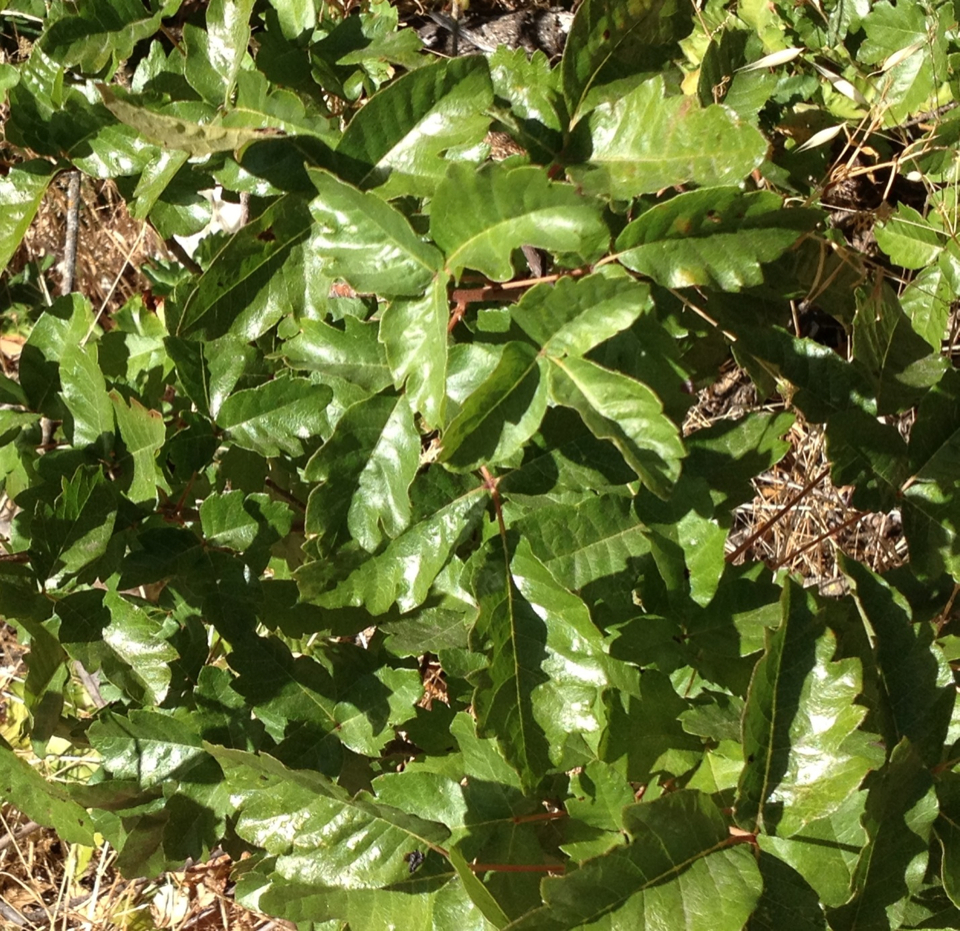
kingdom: Plantae
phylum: Tracheophyta
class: Magnoliopsida
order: Sapindales
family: Anacardiaceae
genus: Toxicodendron
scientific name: Toxicodendron diversilobum
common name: Pacific poison-oak
